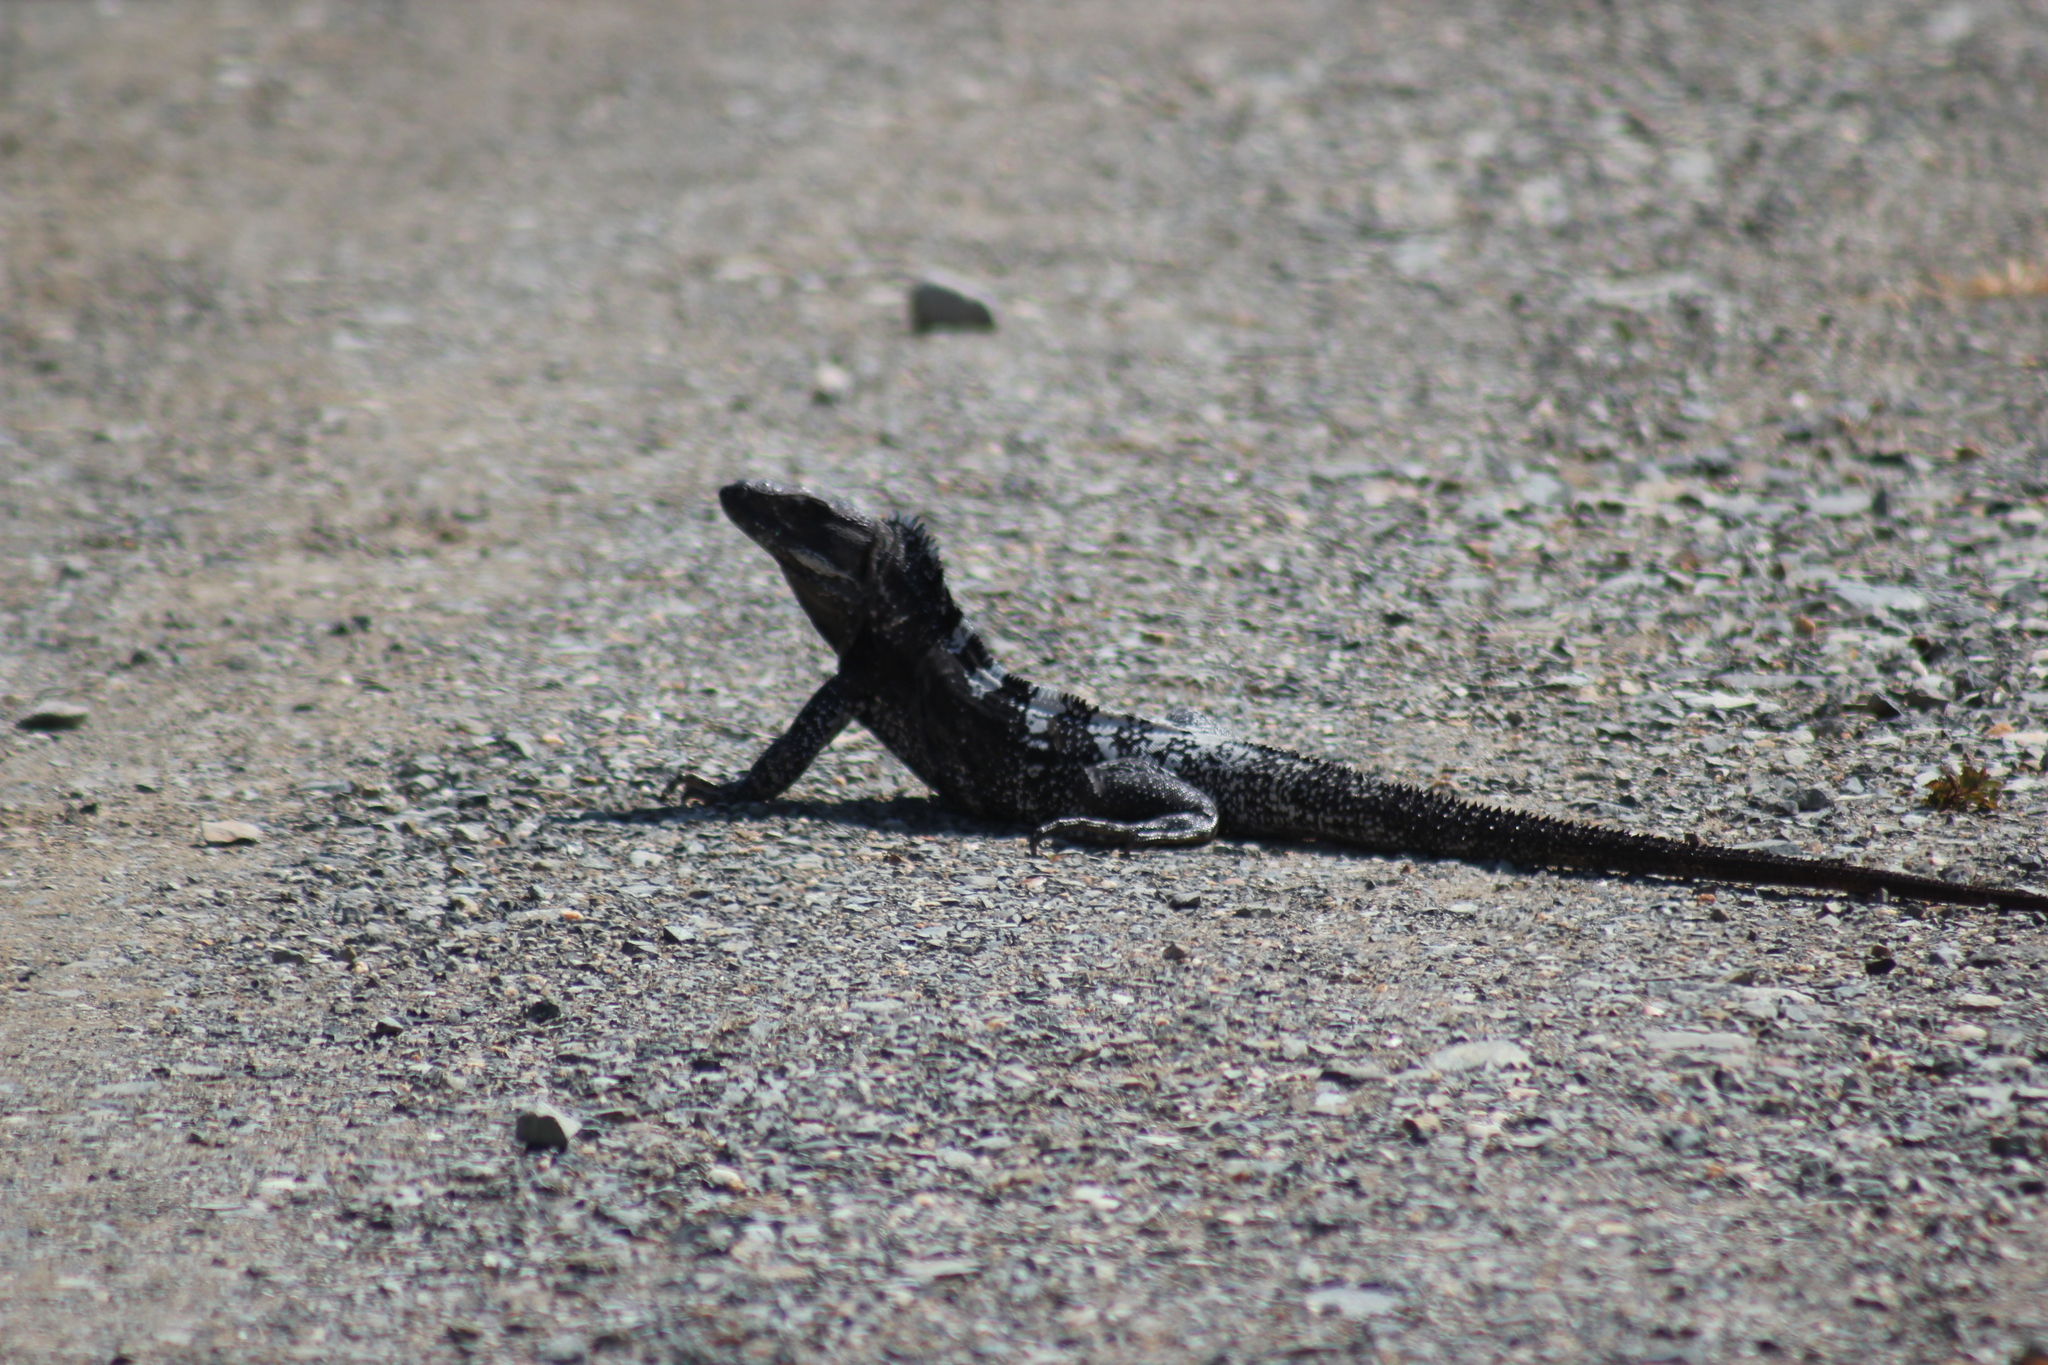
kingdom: Animalia
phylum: Chordata
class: Squamata
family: Iguanidae
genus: Ctenosaura
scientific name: Ctenosaura pectinata
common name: Guerreran spiny-tailed iguana
